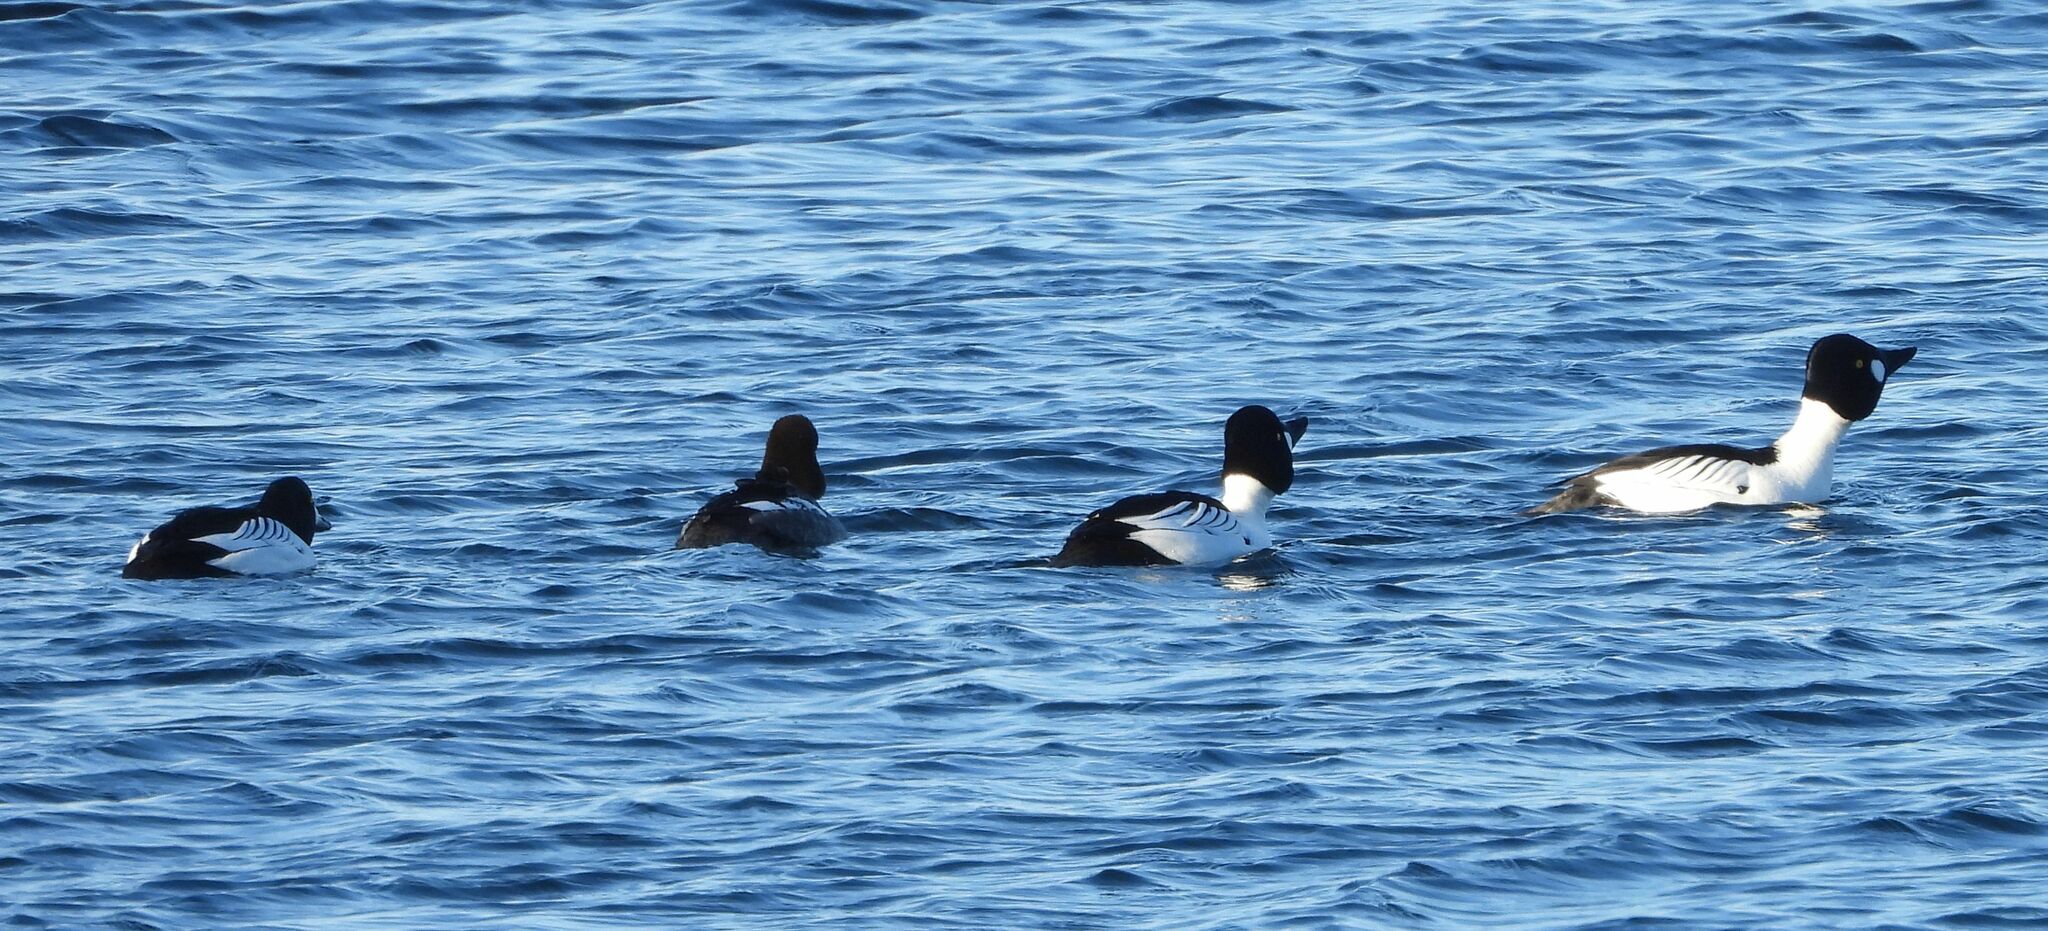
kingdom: Animalia
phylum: Chordata
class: Aves
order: Anseriformes
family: Anatidae
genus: Bucephala
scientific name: Bucephala clangula
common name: Common goldeneye
